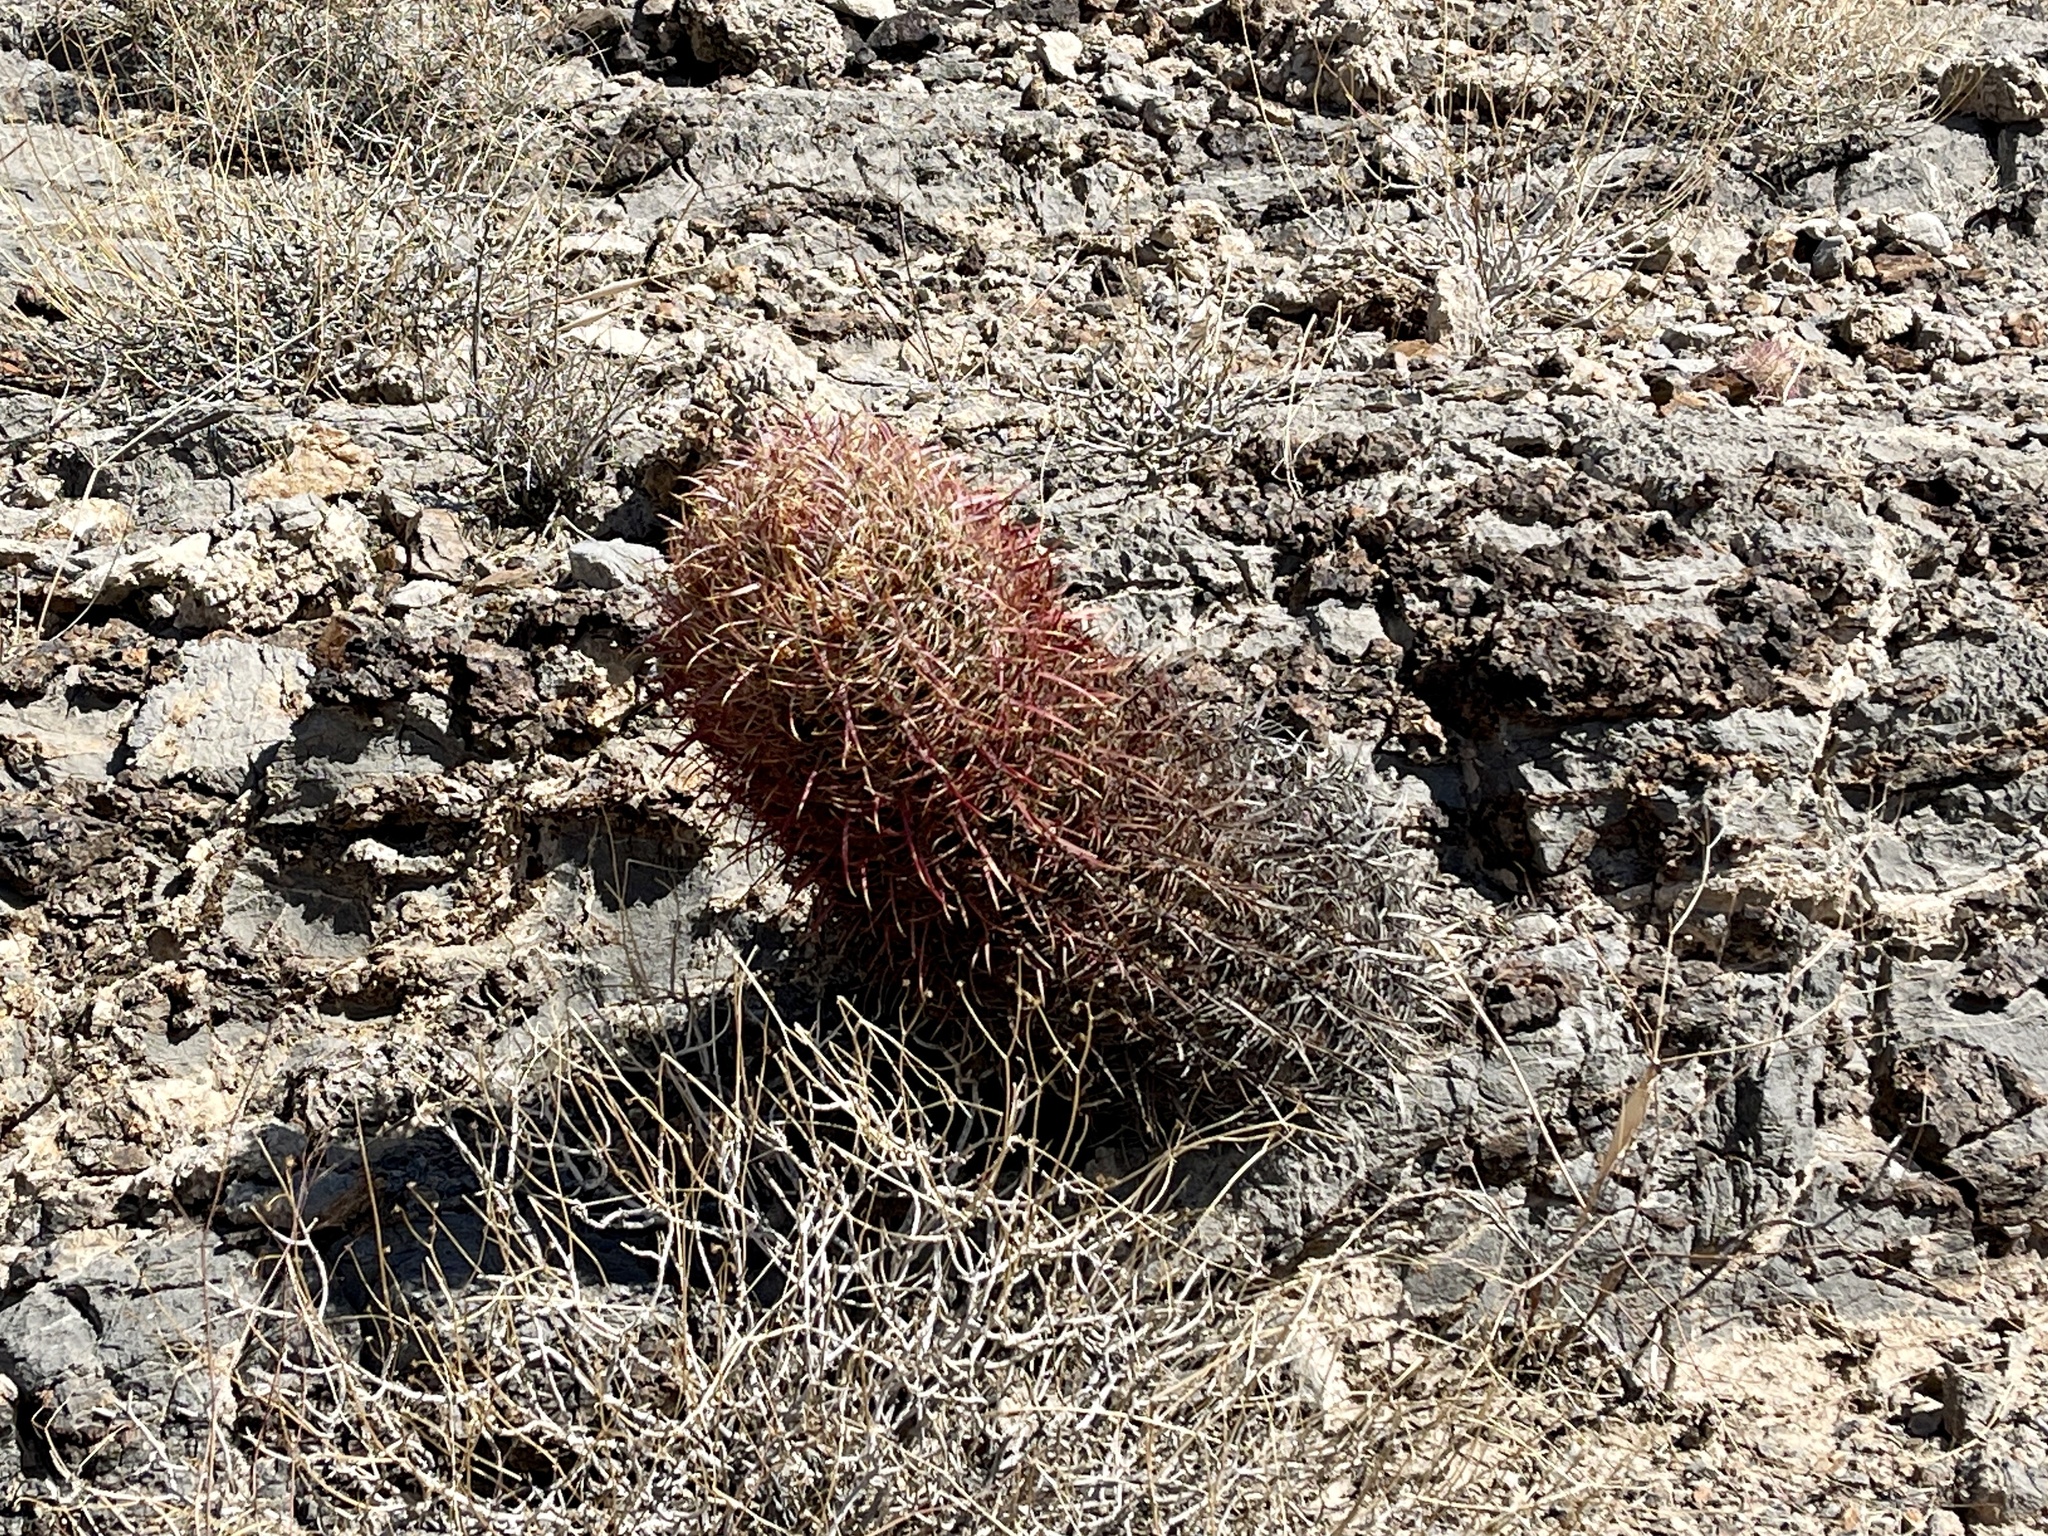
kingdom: Plantae
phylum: Tracheophyta
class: Magnoliopsida
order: Caryophyllales
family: Cactaceae
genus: Ferocactus
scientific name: Ferocactus cylindraceus
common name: California barrel cactus
